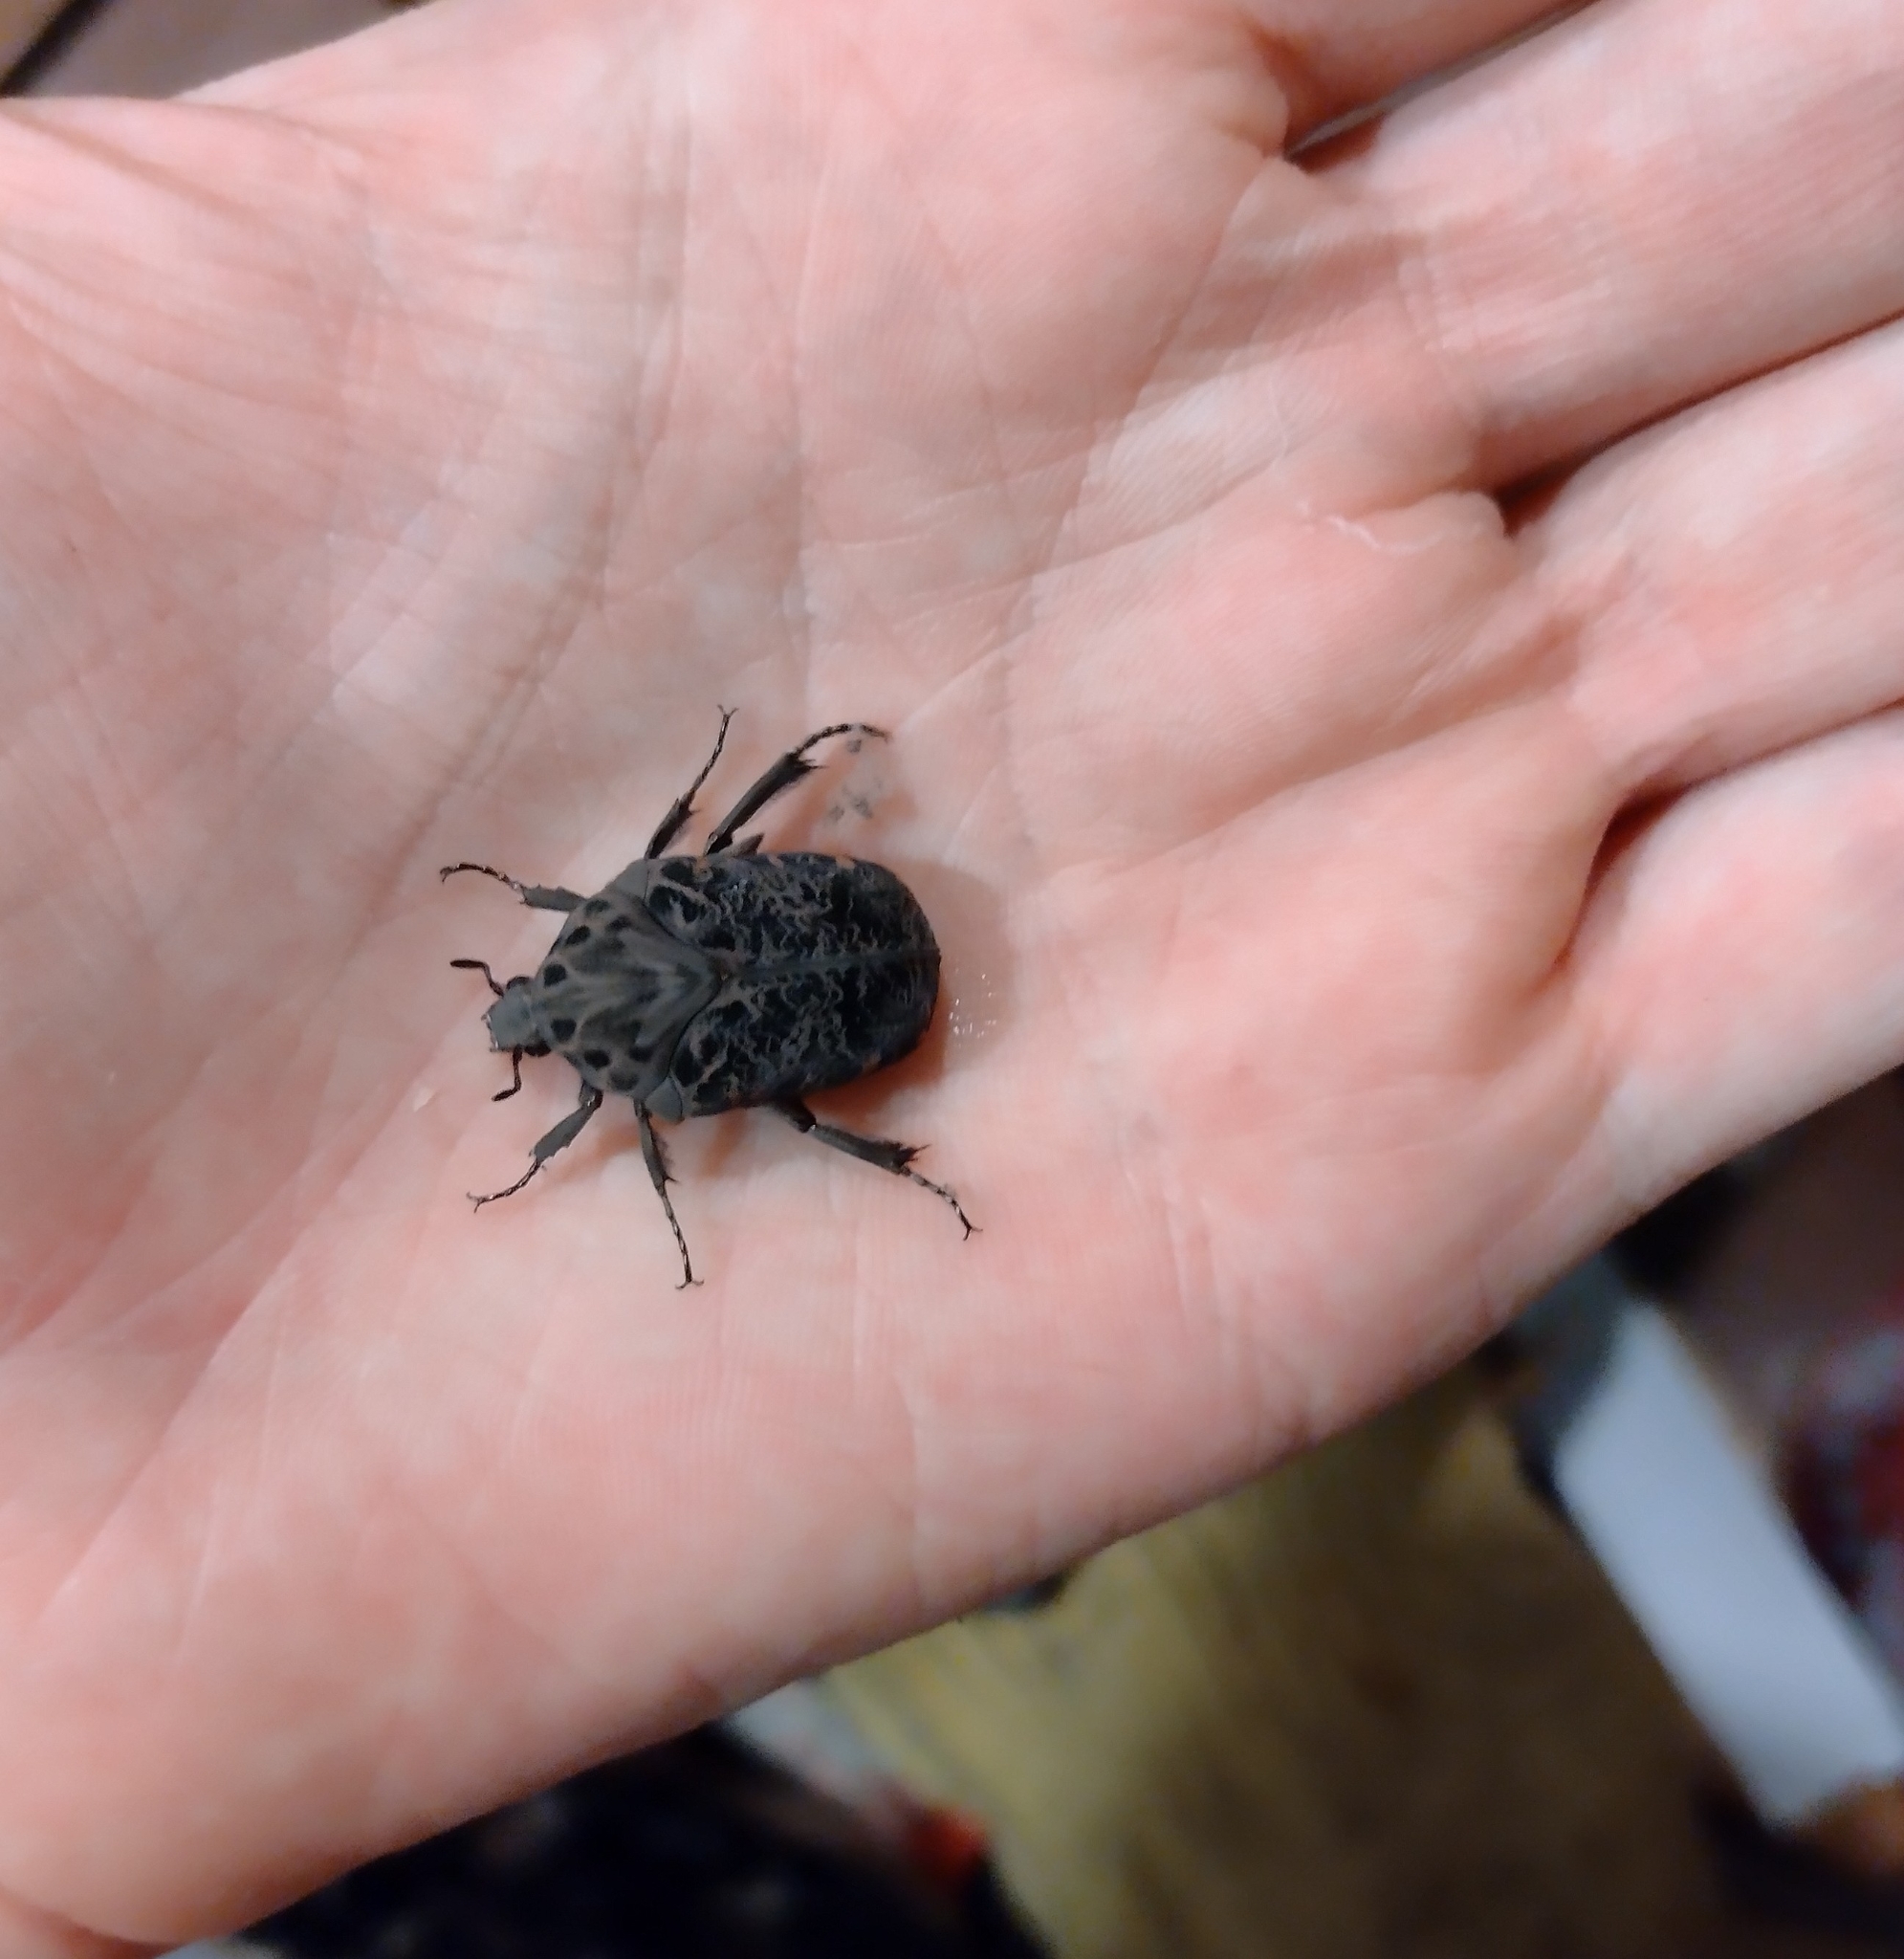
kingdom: Animalia
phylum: Arthropoda
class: Insecta
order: Coleoptera
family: Scarabaeidae
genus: Gymnetis
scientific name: Gymnetis chalcipes
